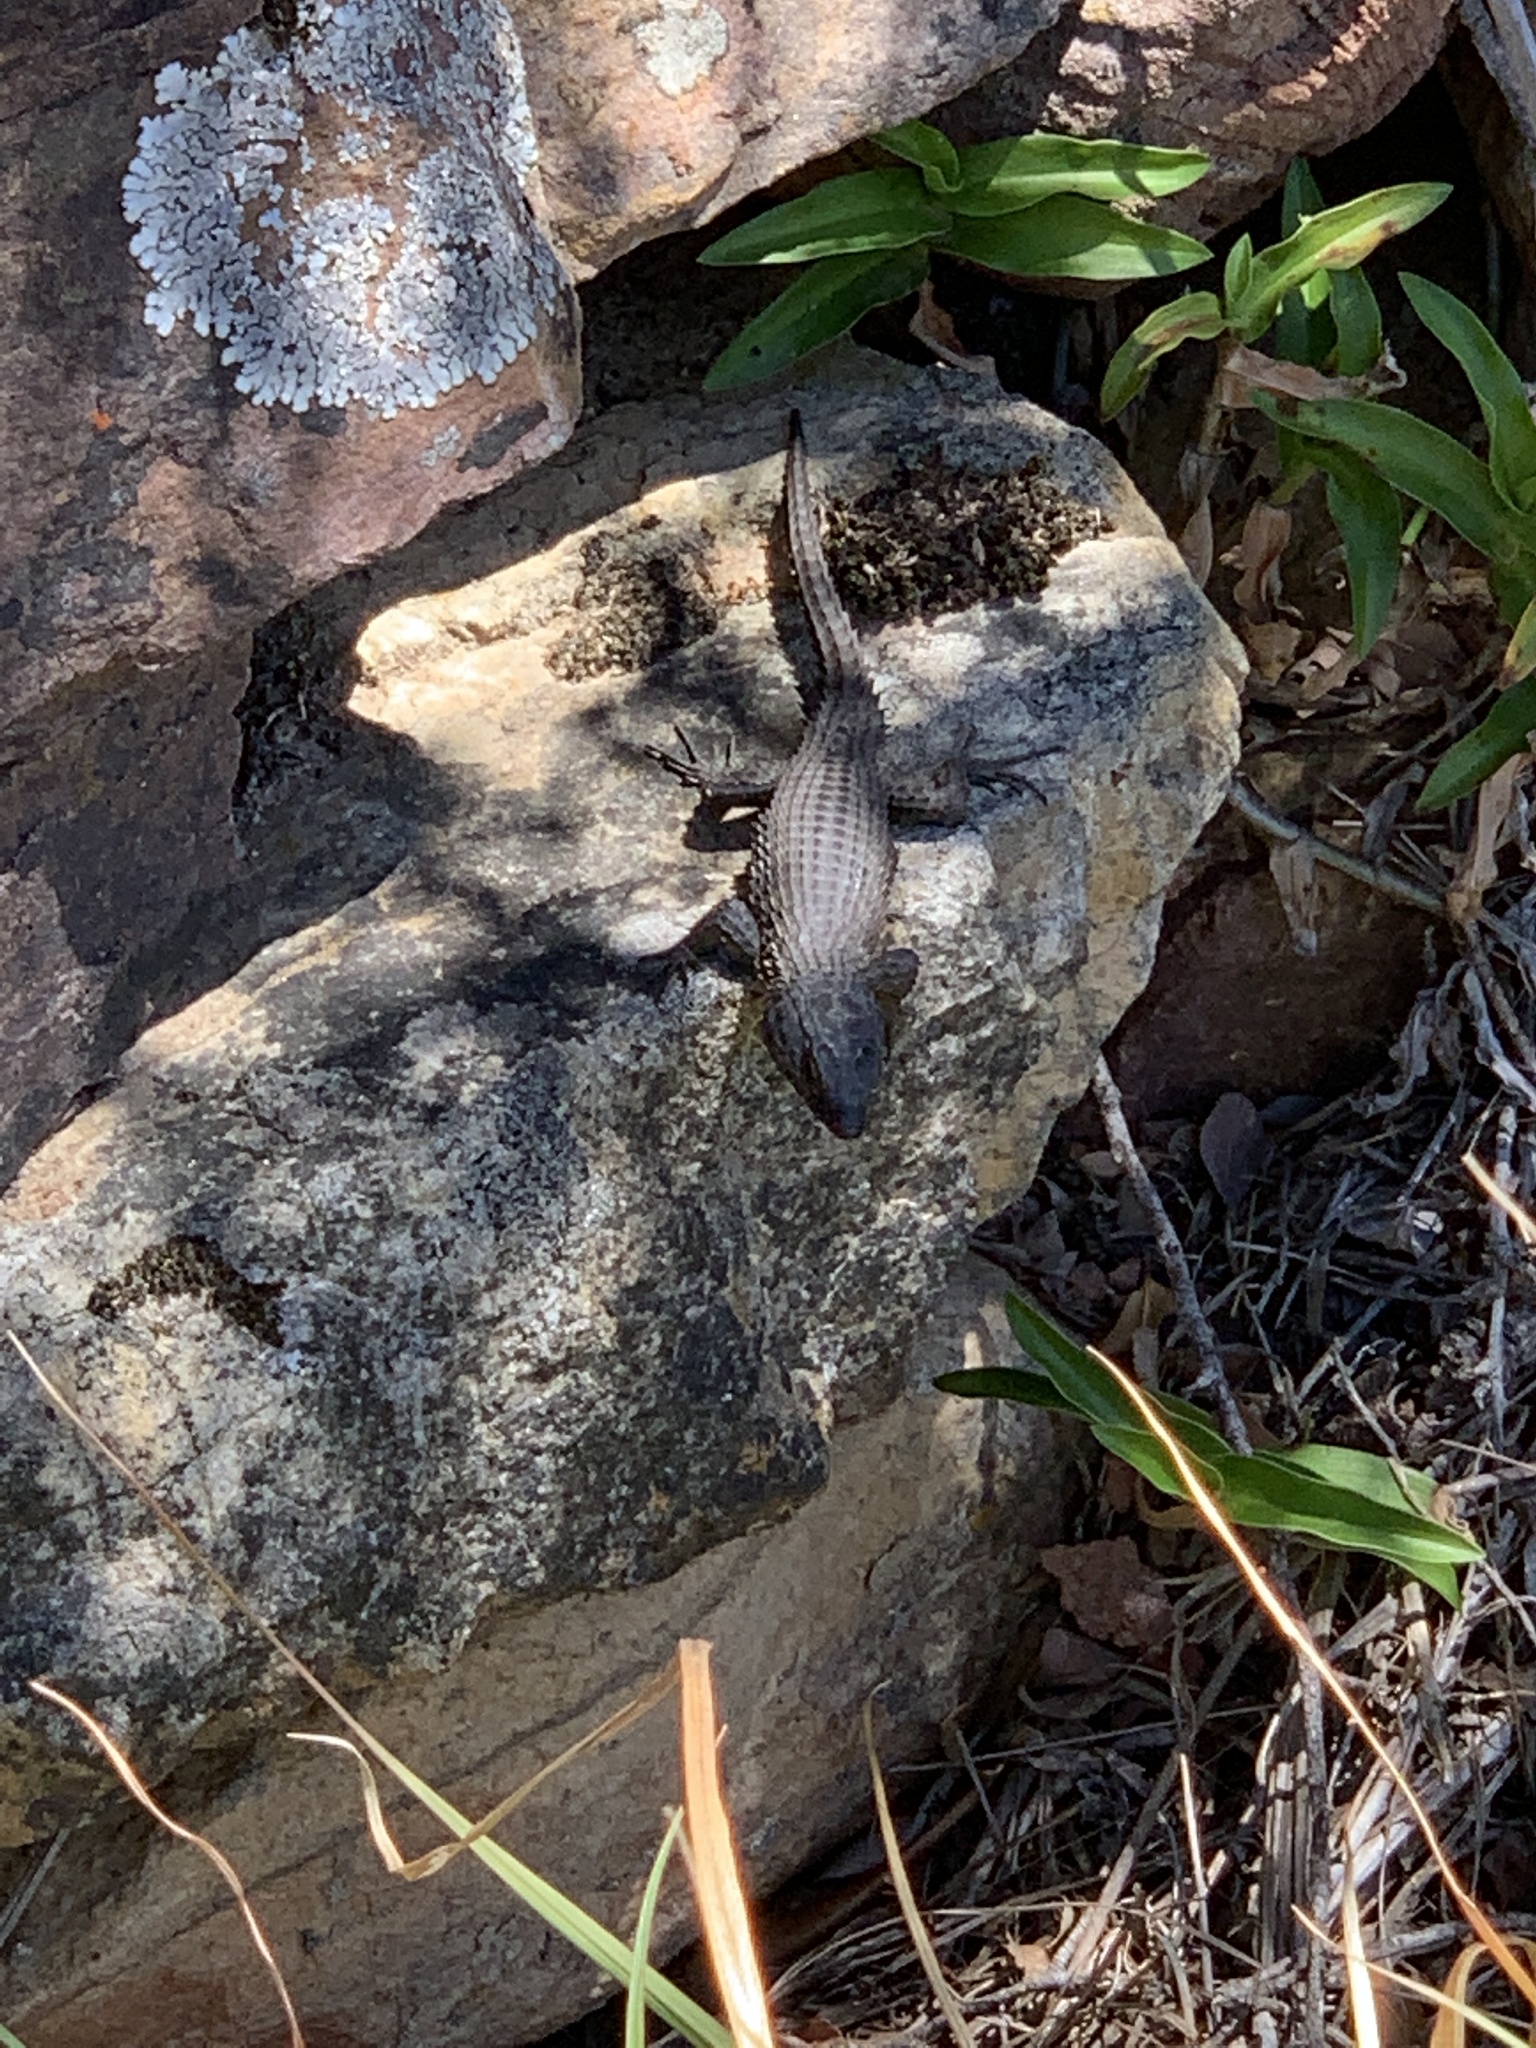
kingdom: Animalia
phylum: Chordata
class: Squamata
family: Cordylidae
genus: Cordylus
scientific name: Cordylus niger
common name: Black girdled lizard
